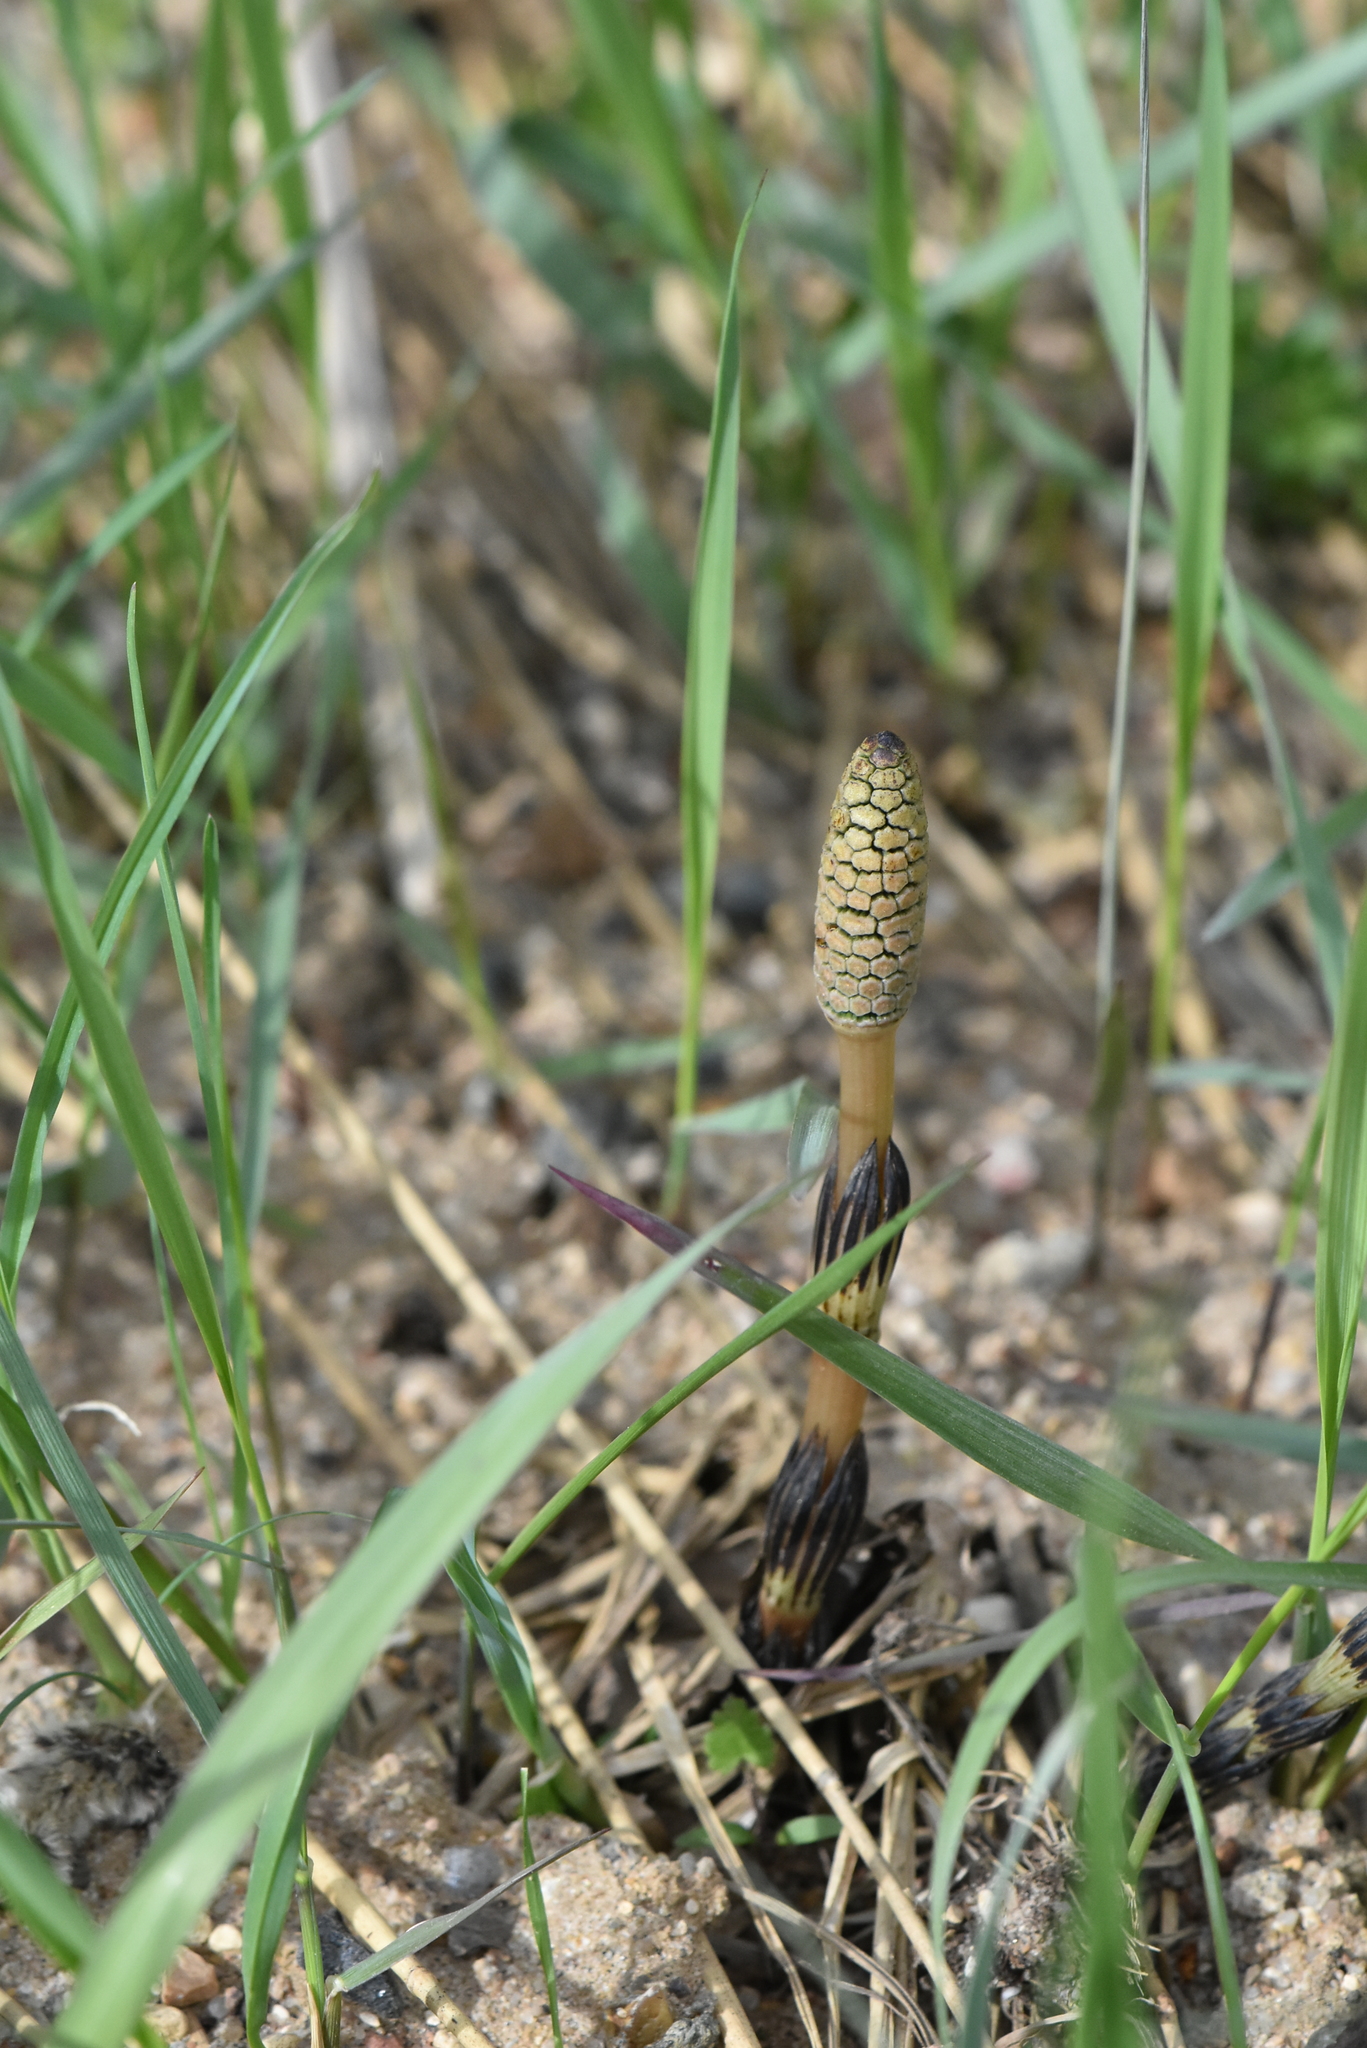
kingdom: Plantae
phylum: Tracheophyta
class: Polypodiopsida
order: Equisetales
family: Equisetaceae
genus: Equisetum
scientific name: Equisetum arvense
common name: Field horsetail
